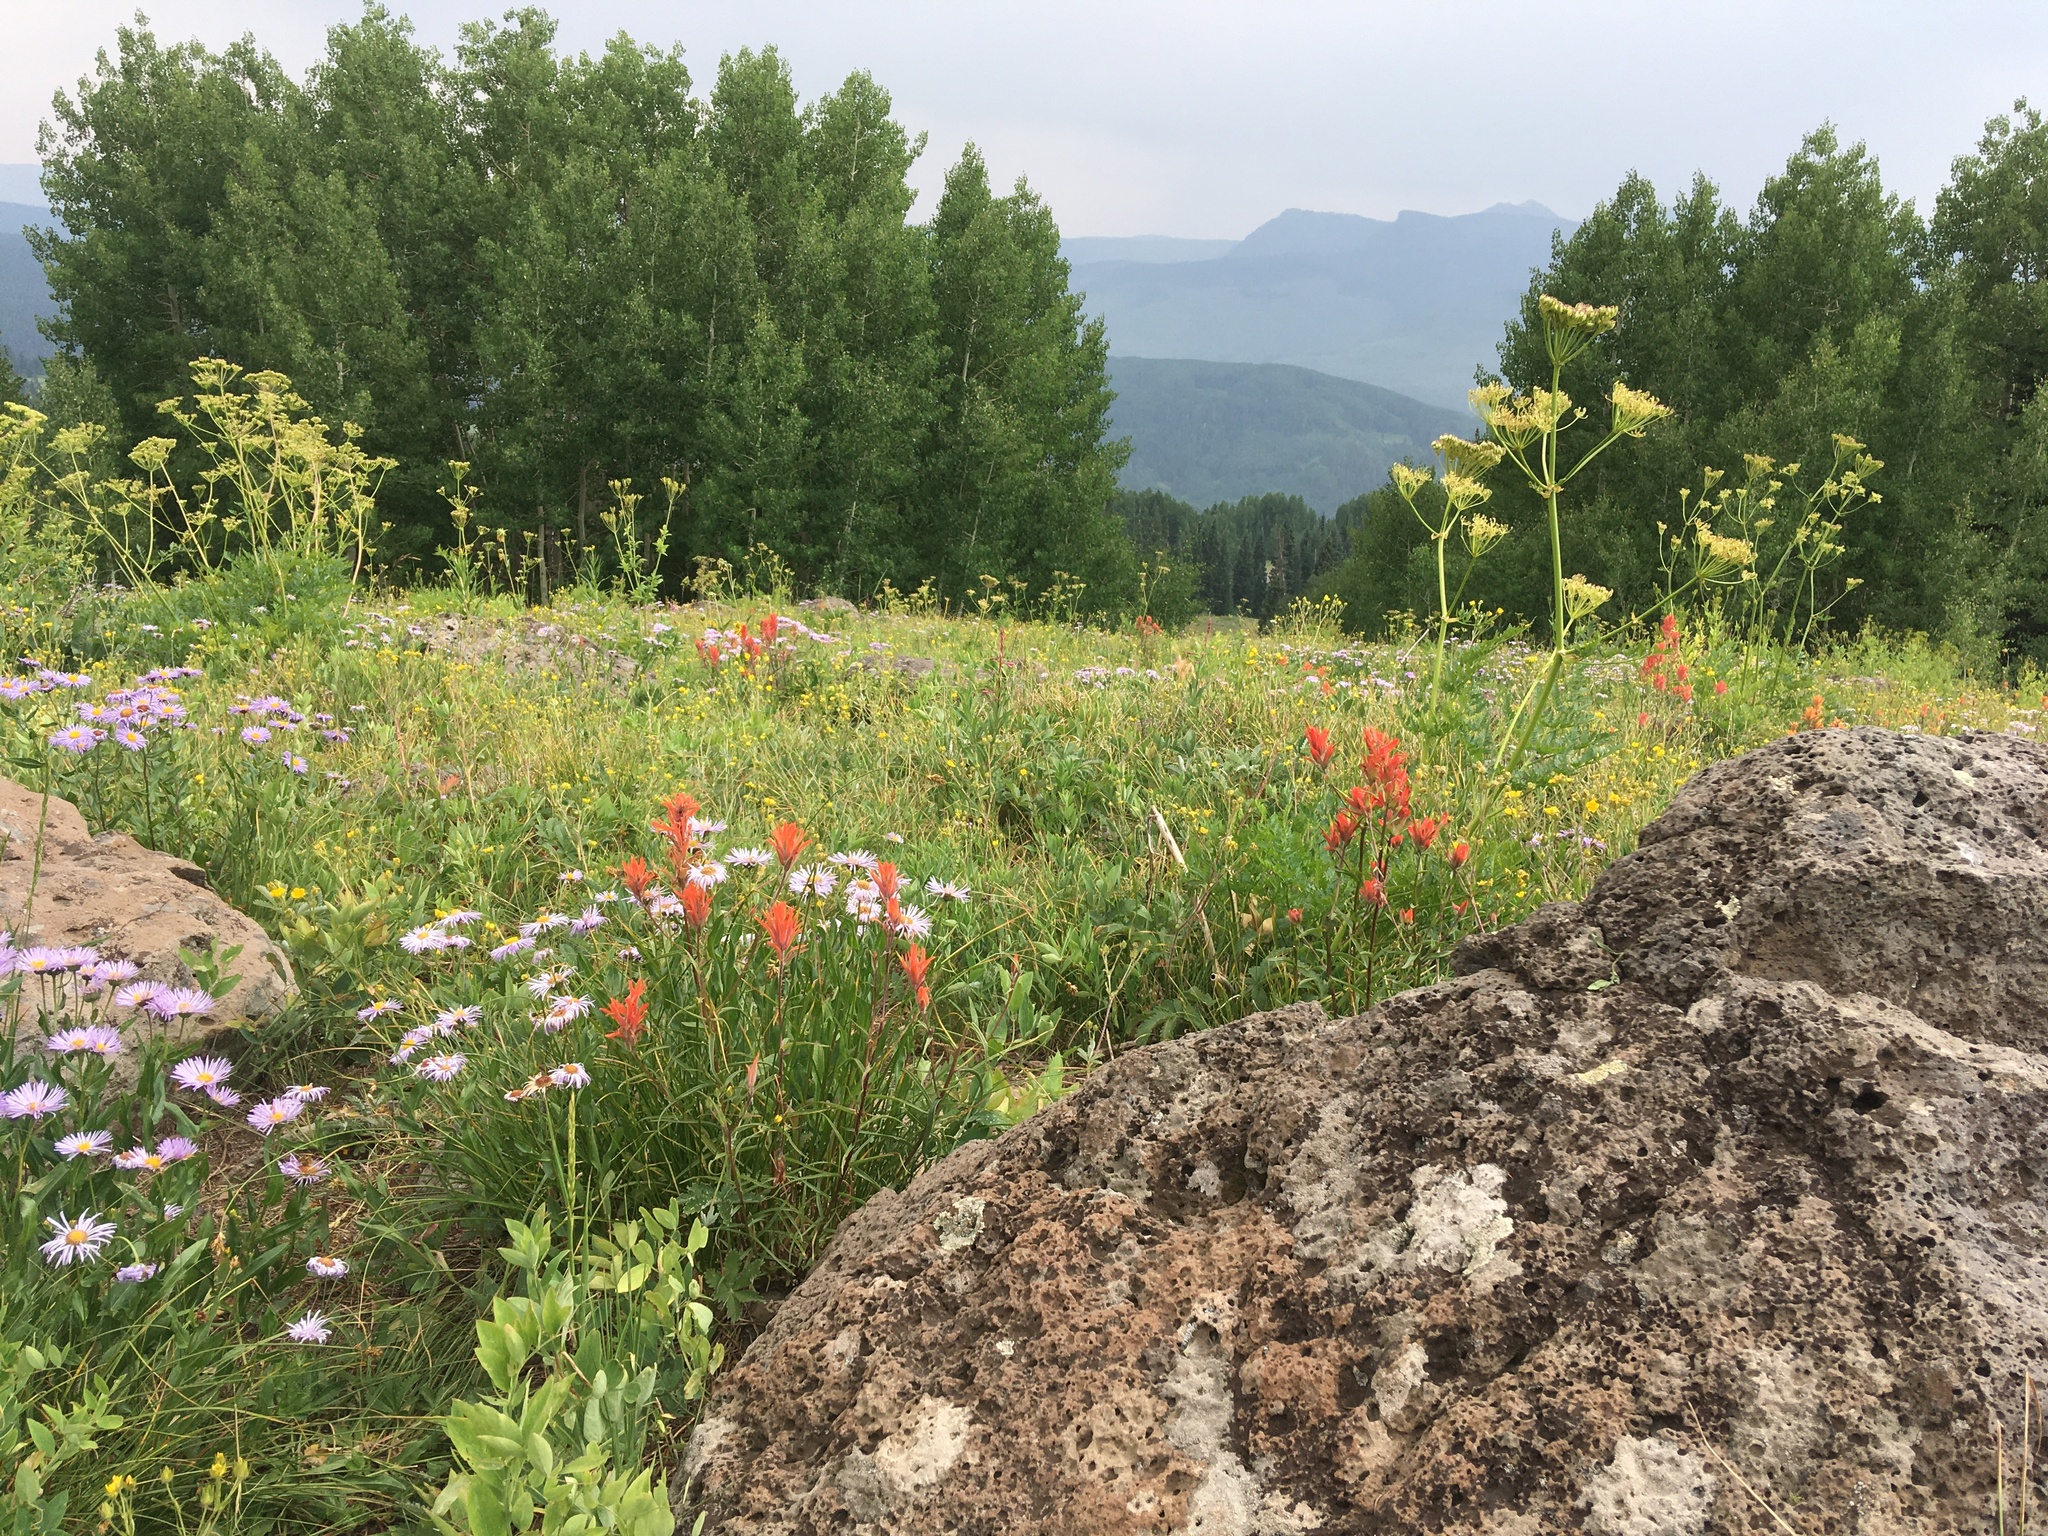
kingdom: Plantae
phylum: Tracheophyta
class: Magnoliopsida
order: Lamiales
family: Orobanchaceae
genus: Castilleja
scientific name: Castilleja miniata
